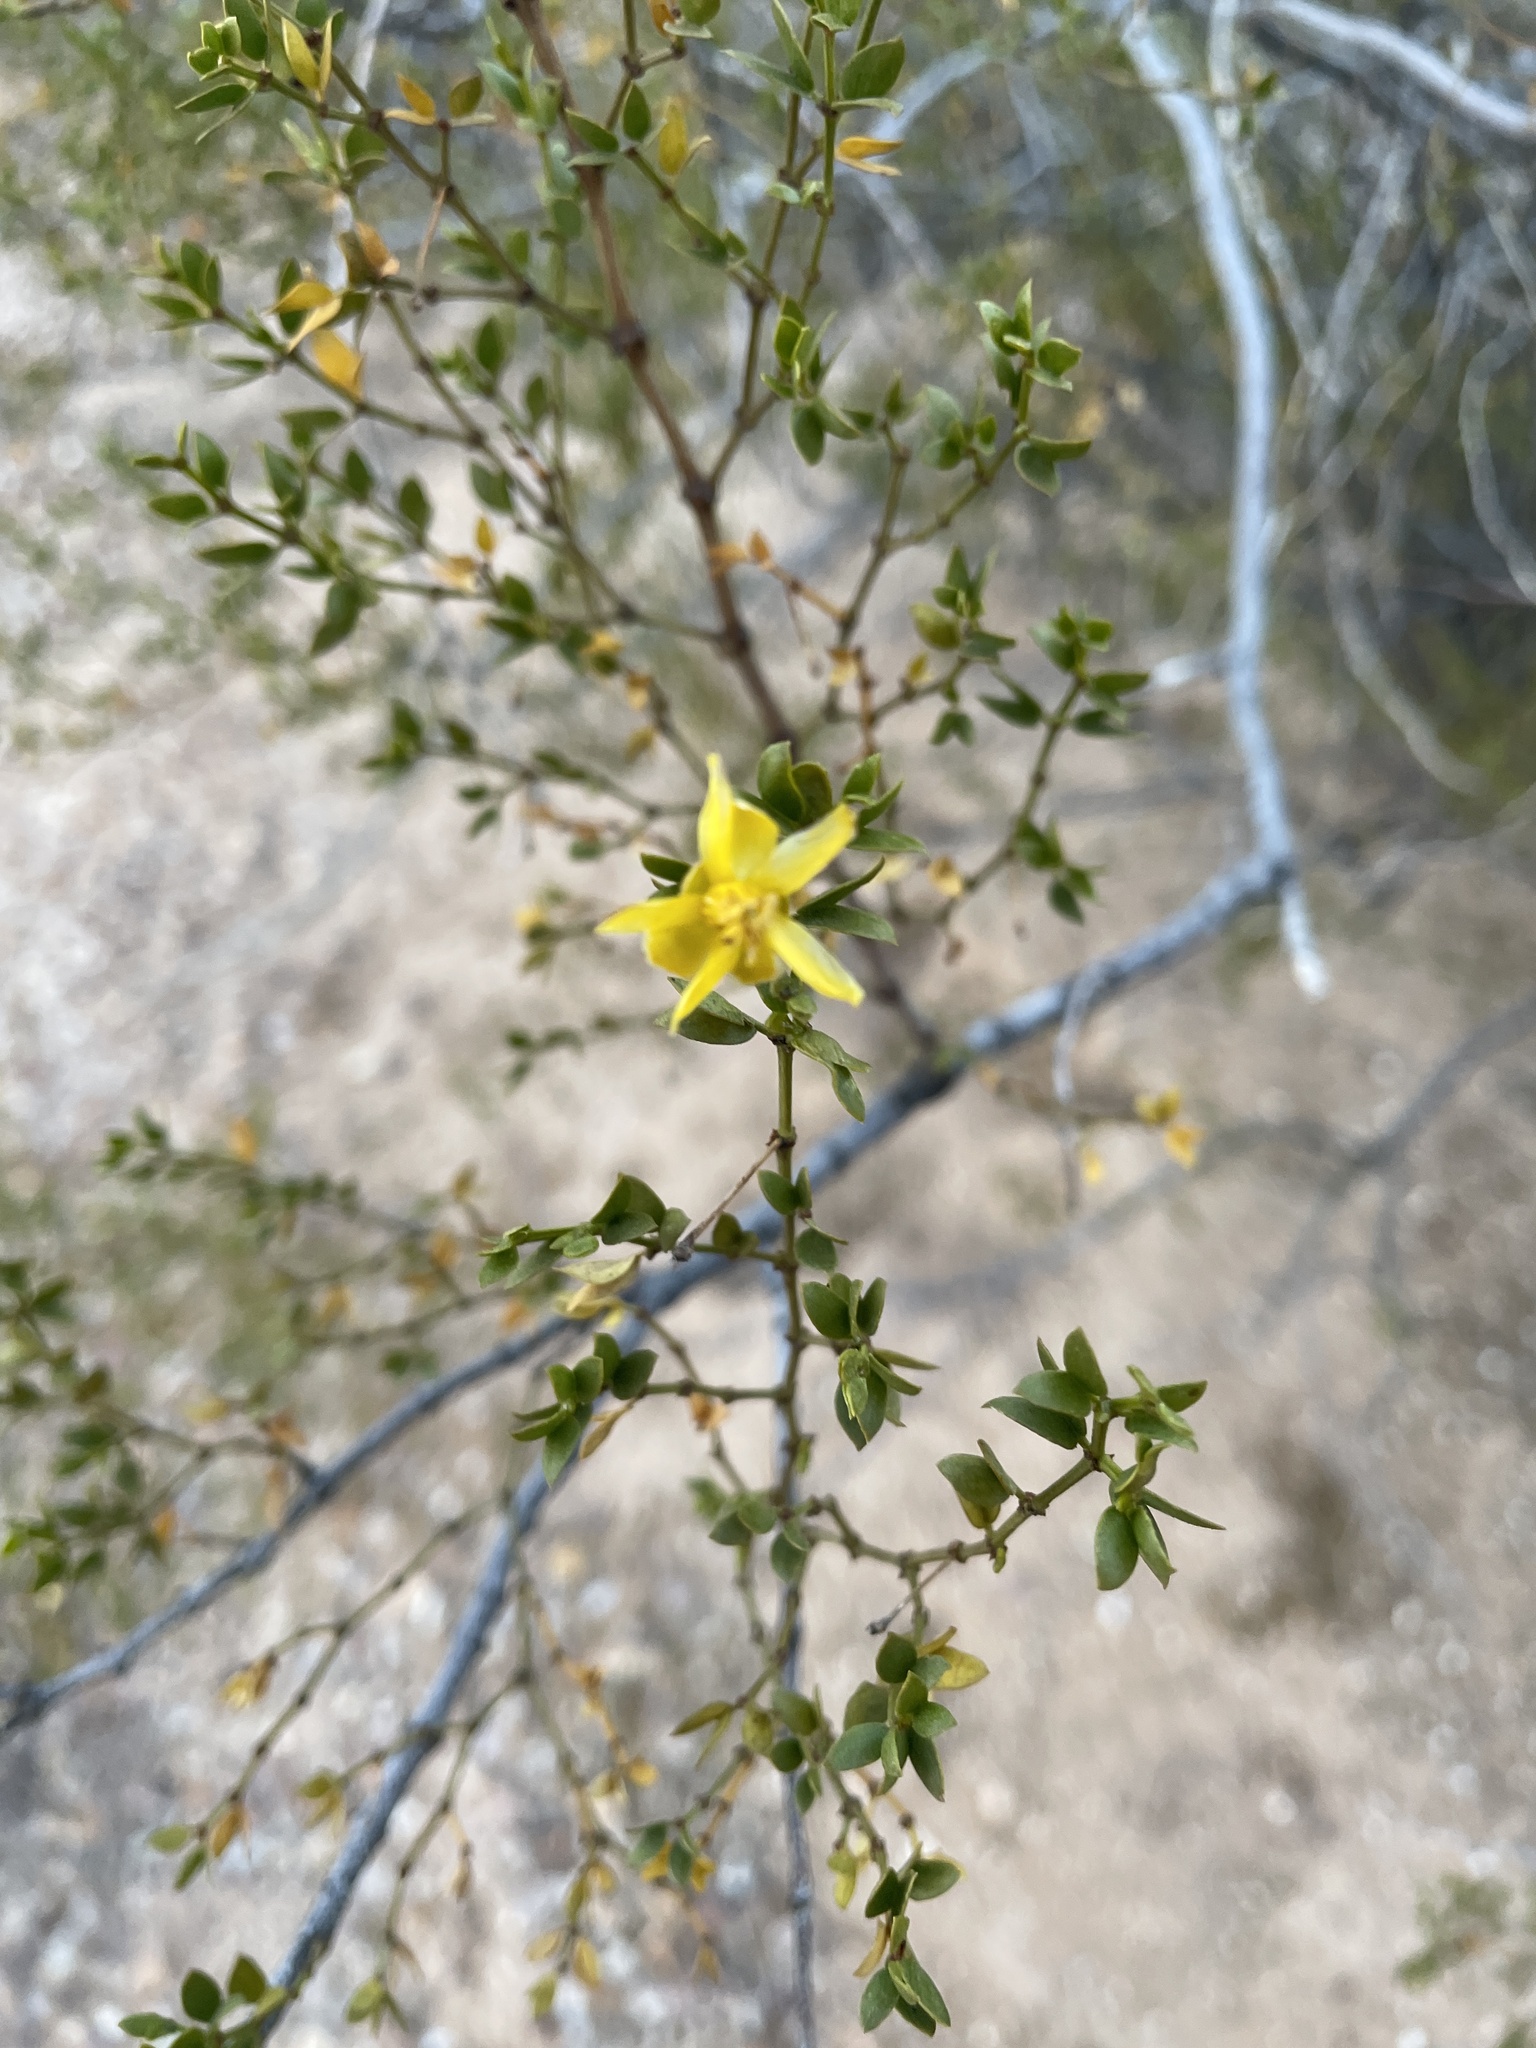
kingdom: Plantae
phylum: Tracheophyta
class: Magnoliopsida
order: Zygophyllales
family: Zygophyllaceae
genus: Larrea
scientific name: Larrea tridentata
